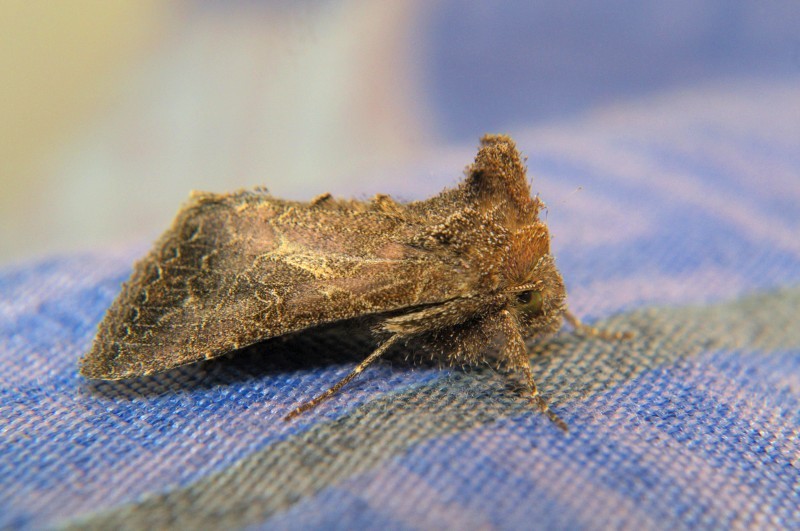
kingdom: Animalia
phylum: Arthropoda
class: Insecta
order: Lepidoptera
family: Noctuidae
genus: Thysanoplusia
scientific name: Thysanoplusia reticulata
